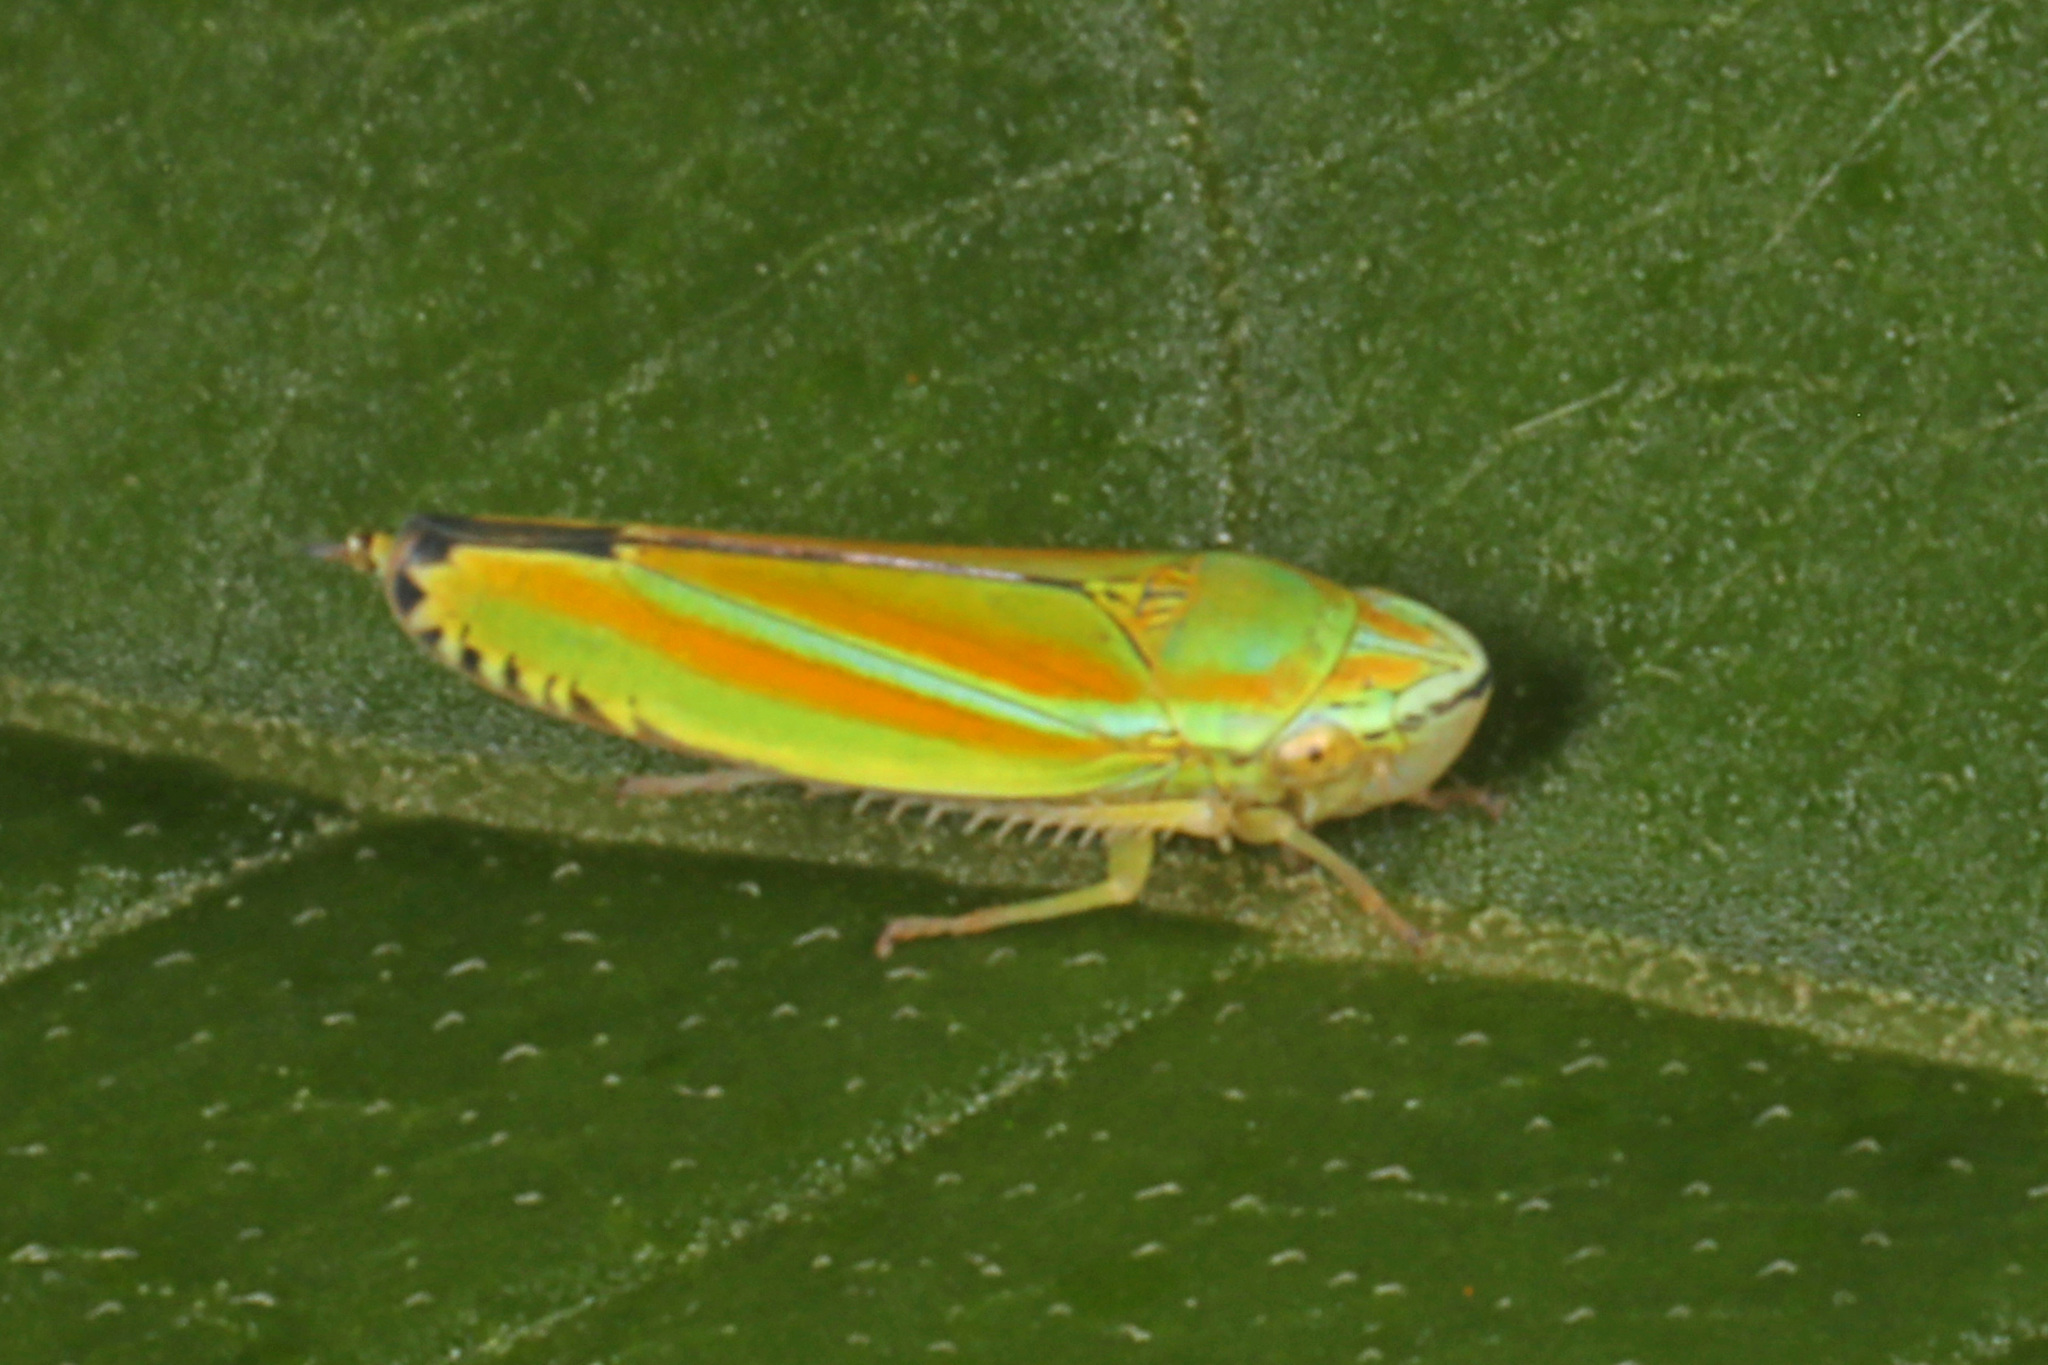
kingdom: Animalia
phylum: Arthropoda
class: Insecta
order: Hemiptera
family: Cicadellidae
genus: Graphocephala
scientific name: Graphocephala versuta
